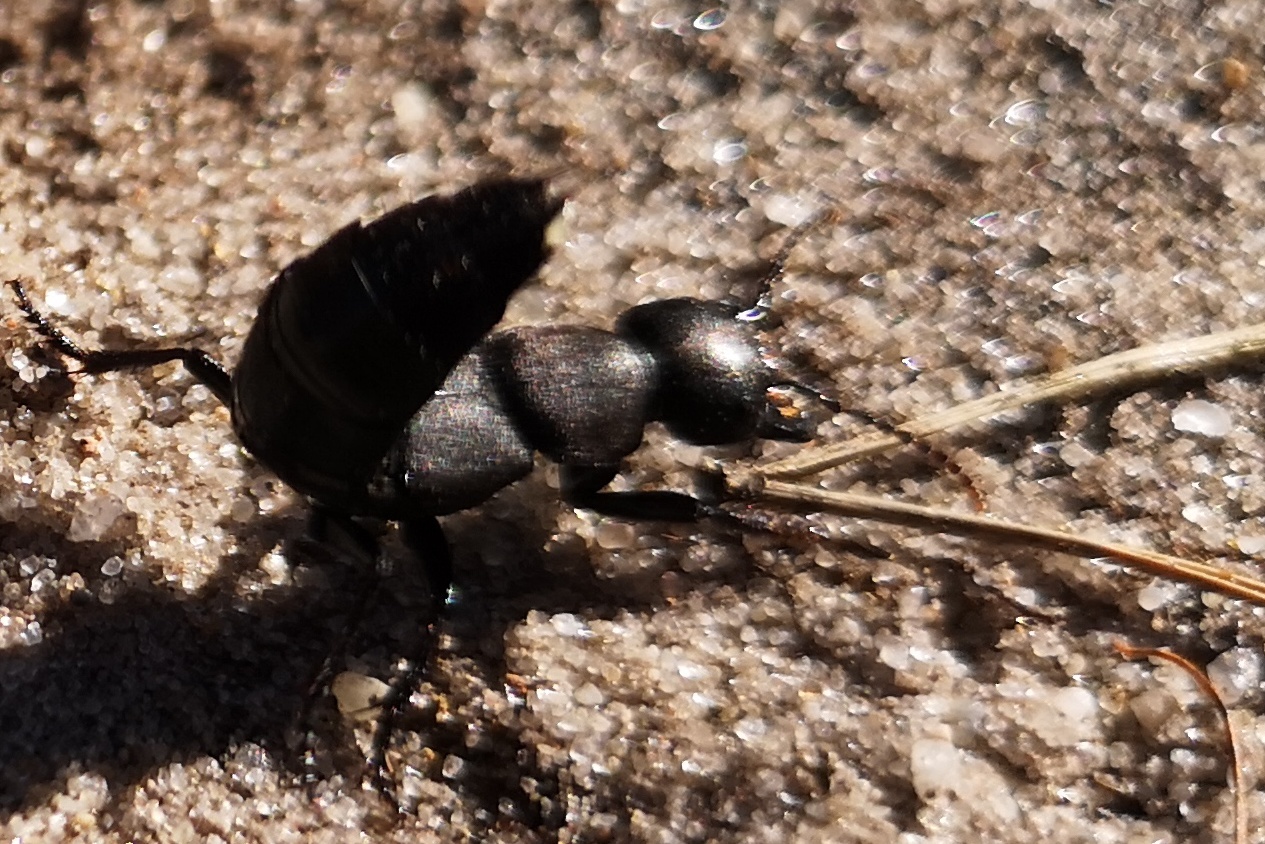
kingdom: Animalia
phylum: Arthropoda
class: Insecta
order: Coleoptera
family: Staphylinidae
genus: Ocypus
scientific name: Ocypus olens
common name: Devil's coach-horse
